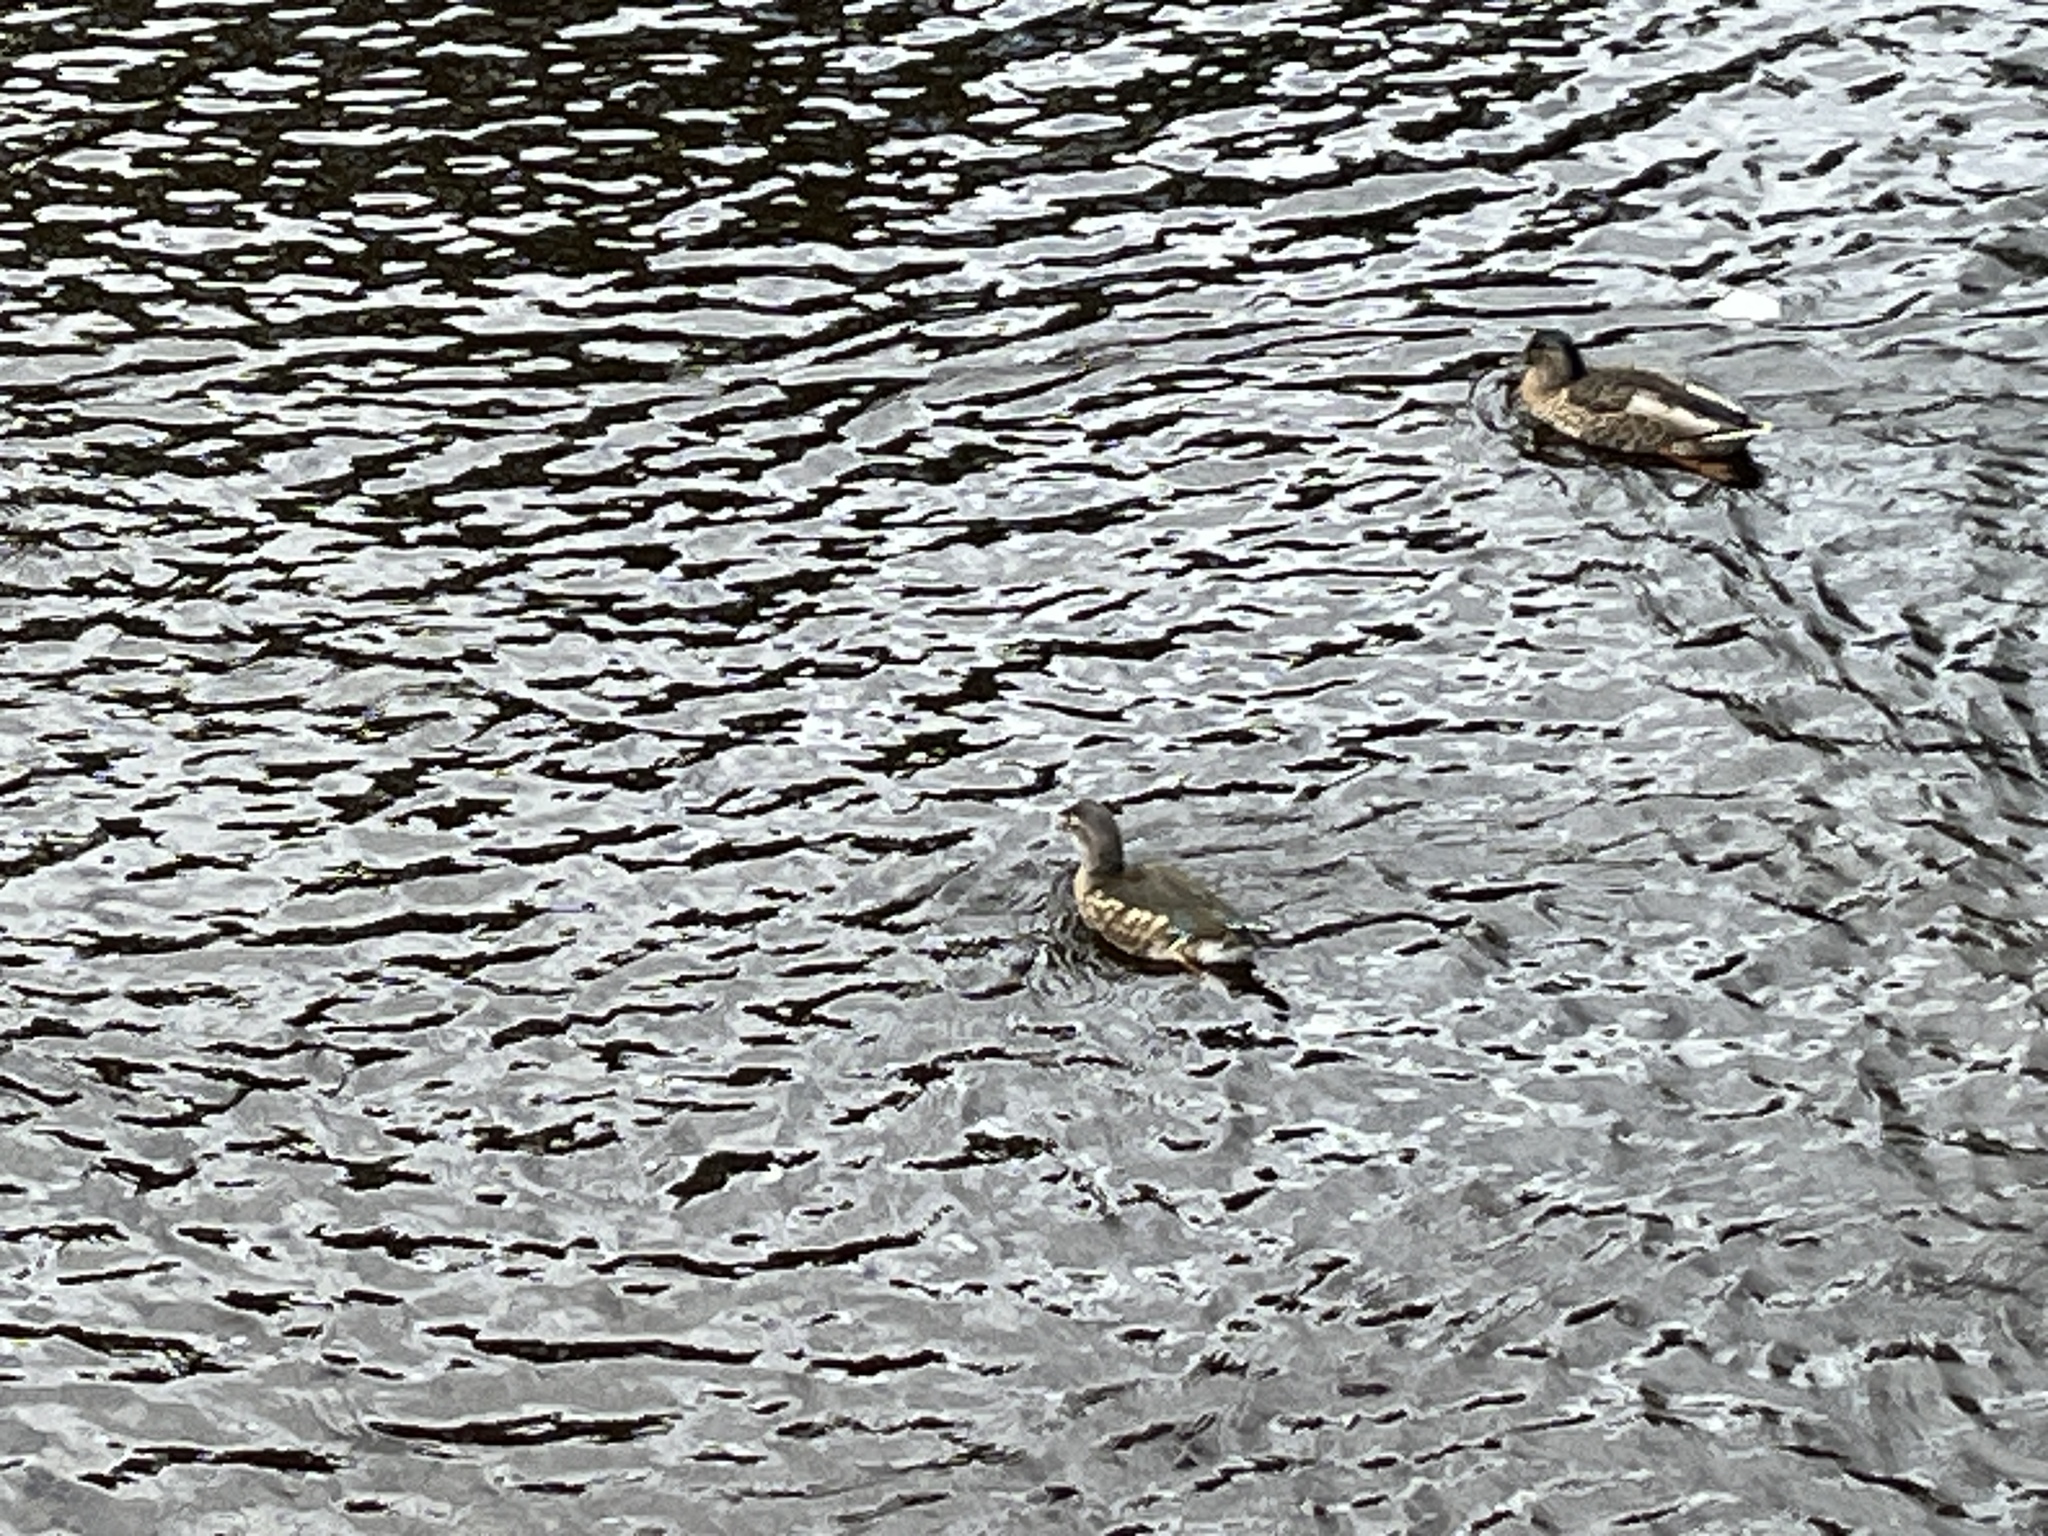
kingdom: Animalia
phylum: Chordata
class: Aves
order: Anseriformes
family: Anatidae
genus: Aix
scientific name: Aix galericulata
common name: Mandarin duck
